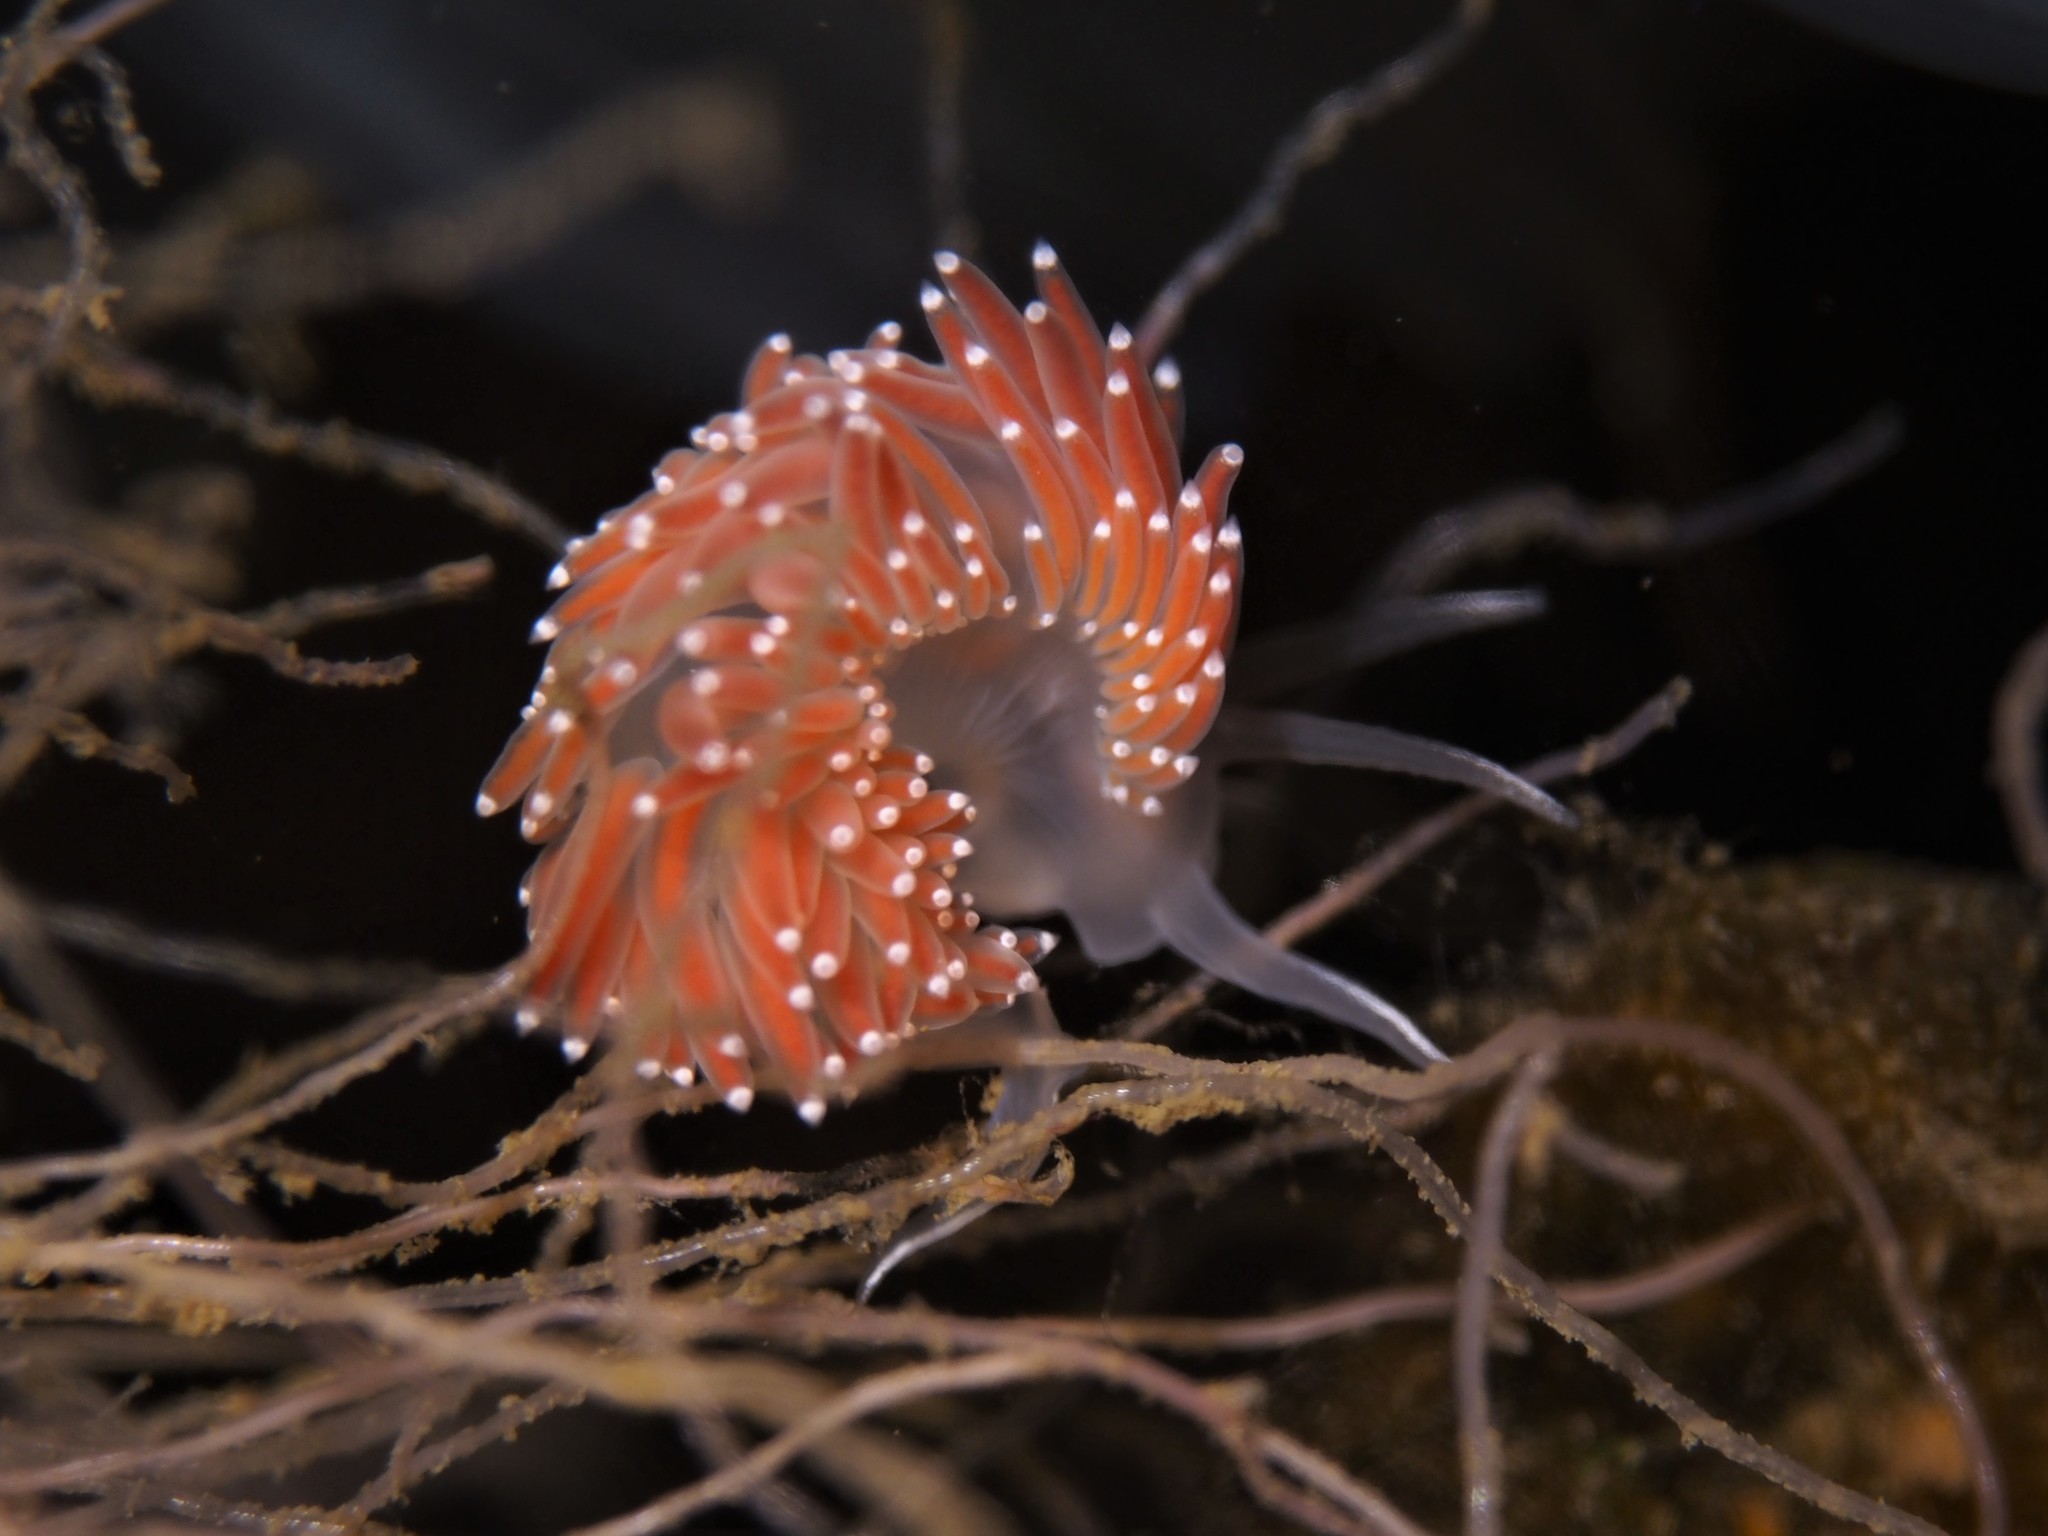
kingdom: Animalia
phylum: Mollusca
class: Gastropoda
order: Nudibranchia
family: Coryphellidae
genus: Coryphella
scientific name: Coryphella verrucosa
